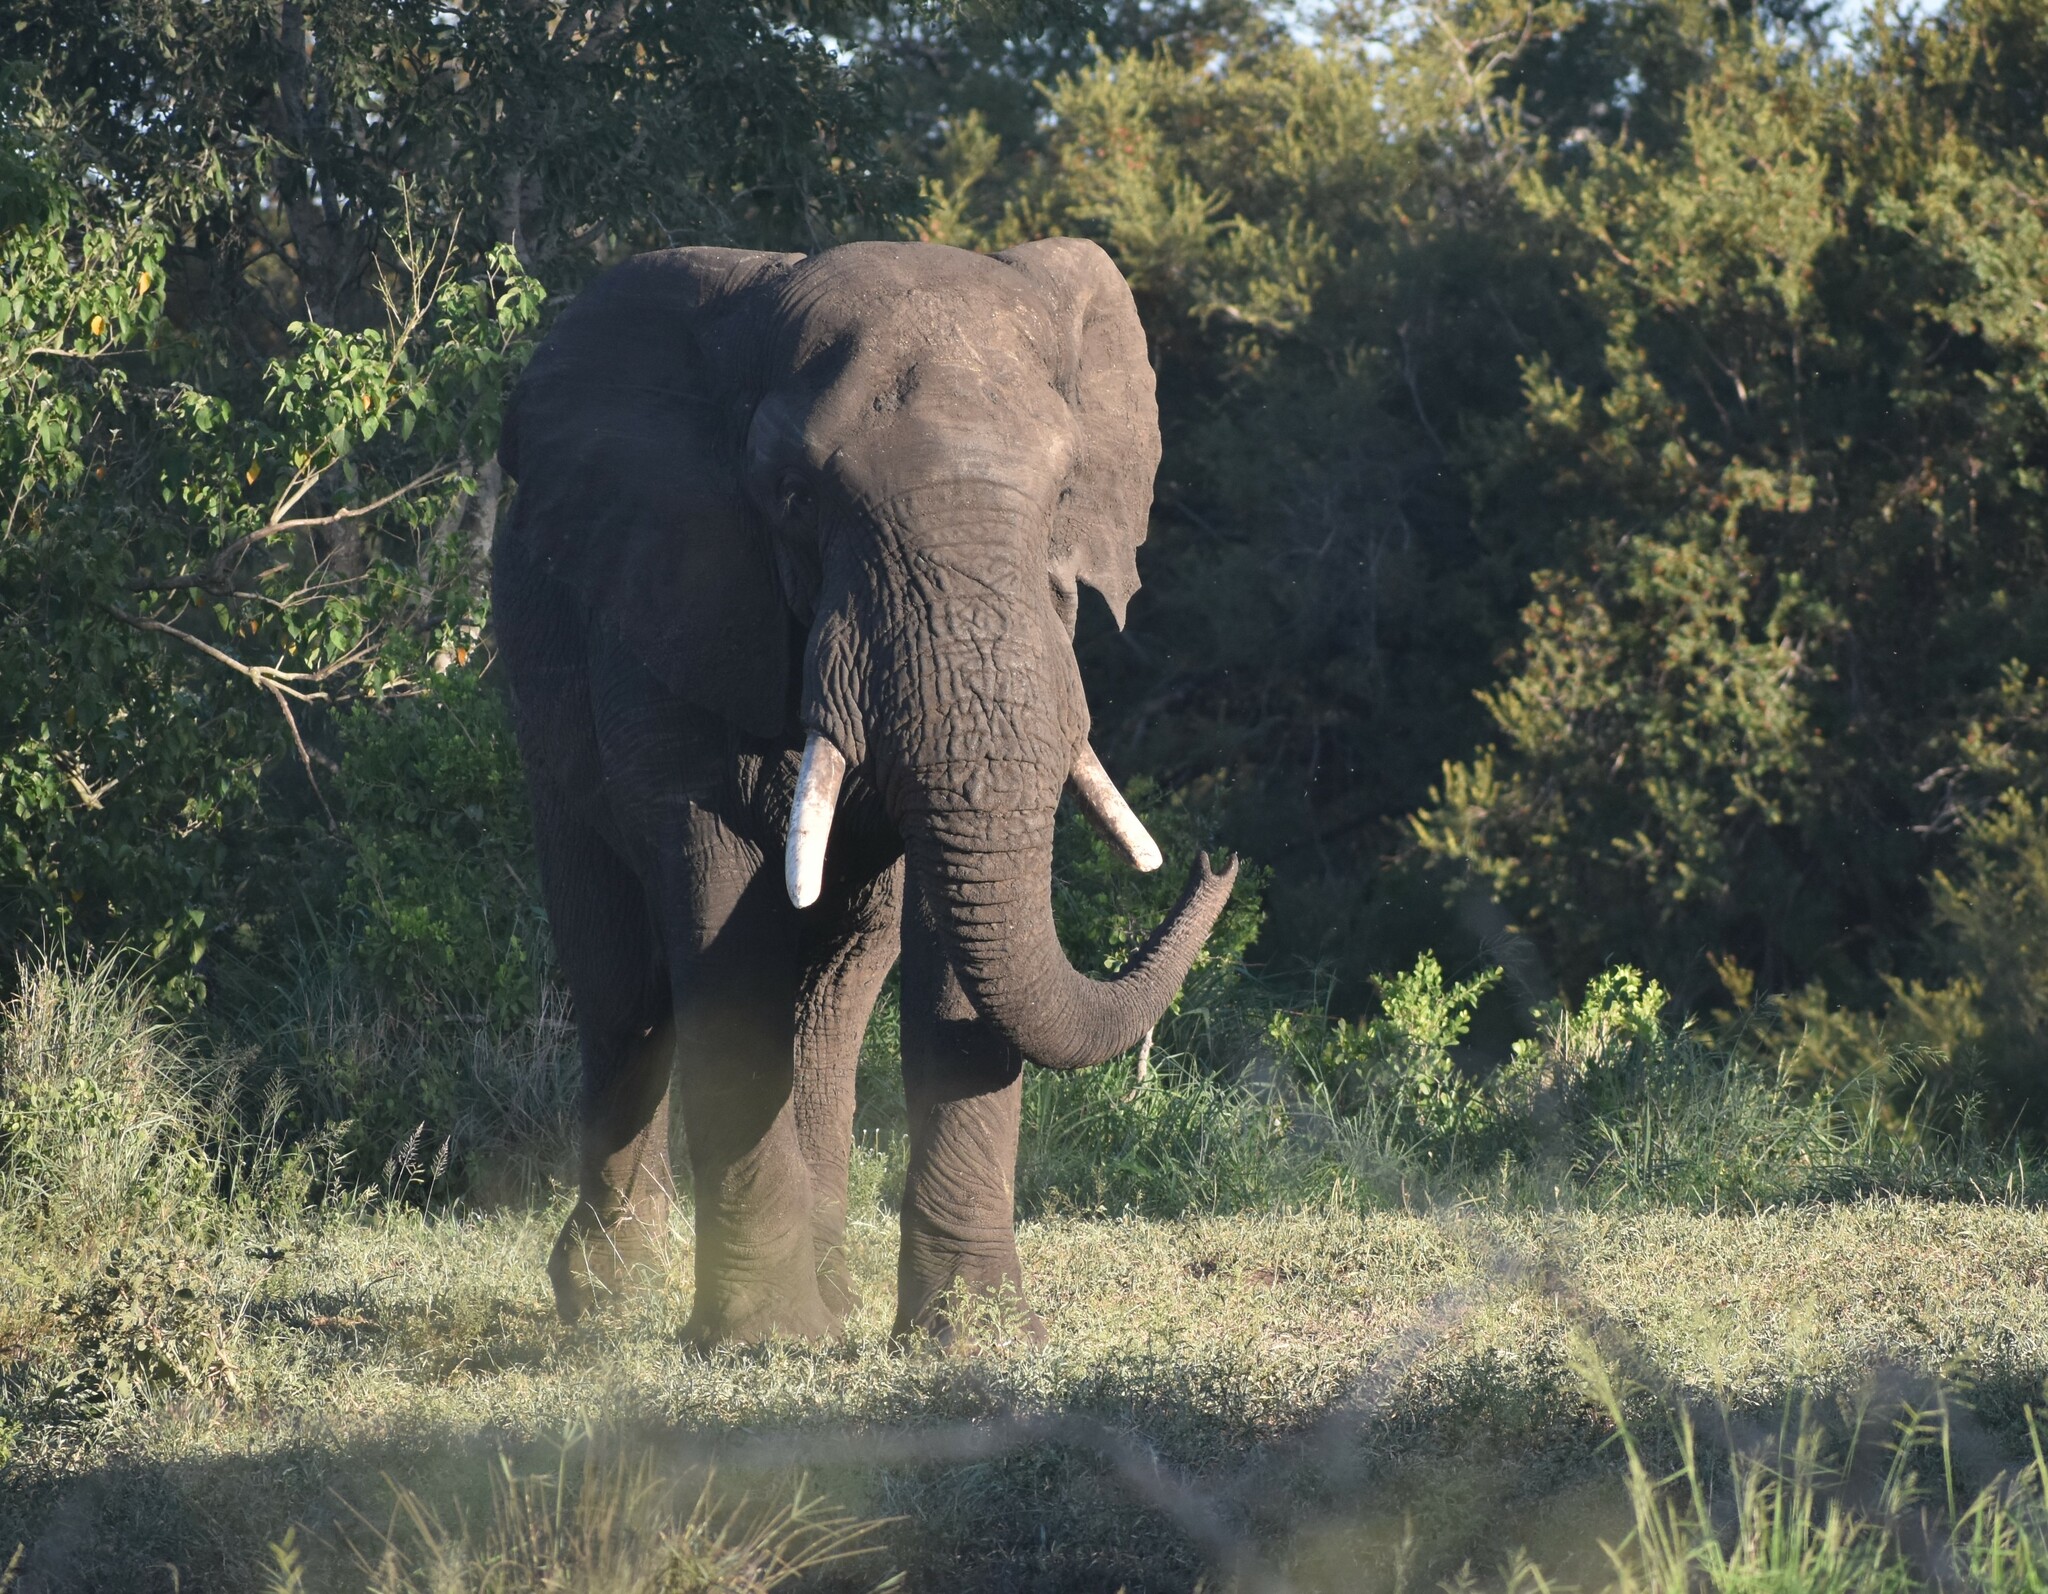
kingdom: Animalia
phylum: Chordata
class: Mammalia
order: Proboscidea
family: Elephantidae
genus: Loxodonta
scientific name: Loxodonta africana
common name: African elephant
